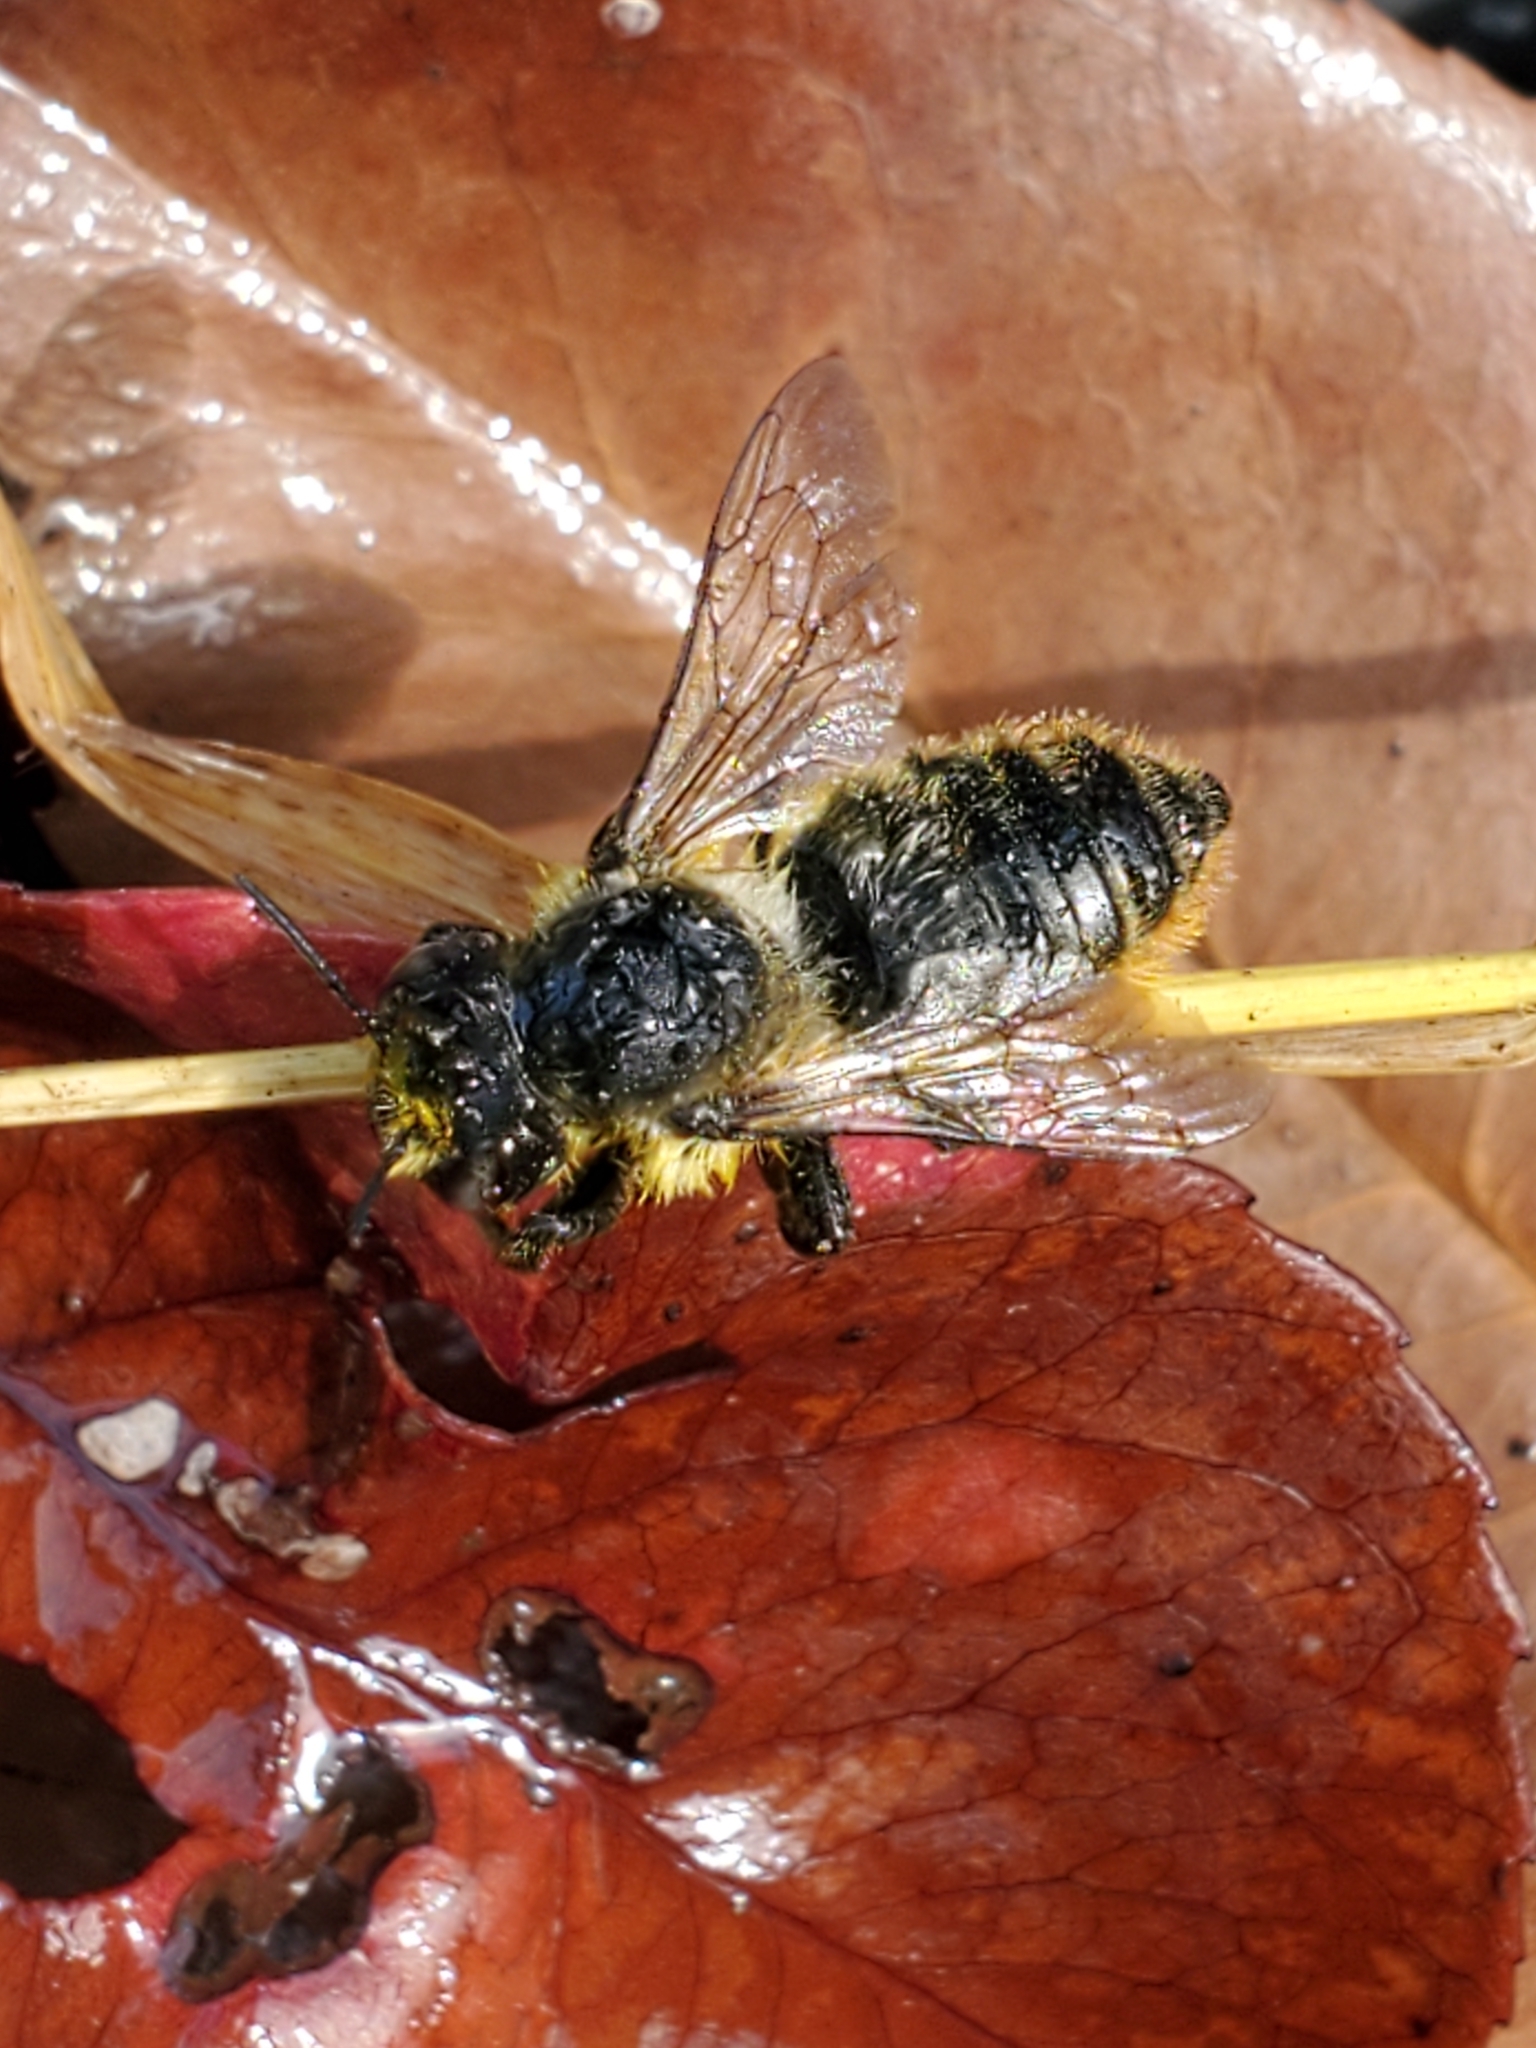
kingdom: Animalia
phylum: Arthropoda
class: Insecta
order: Hymenoptera
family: Megachilidae
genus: Megachile
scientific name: Megachile perihirta
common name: Western leafcutter
